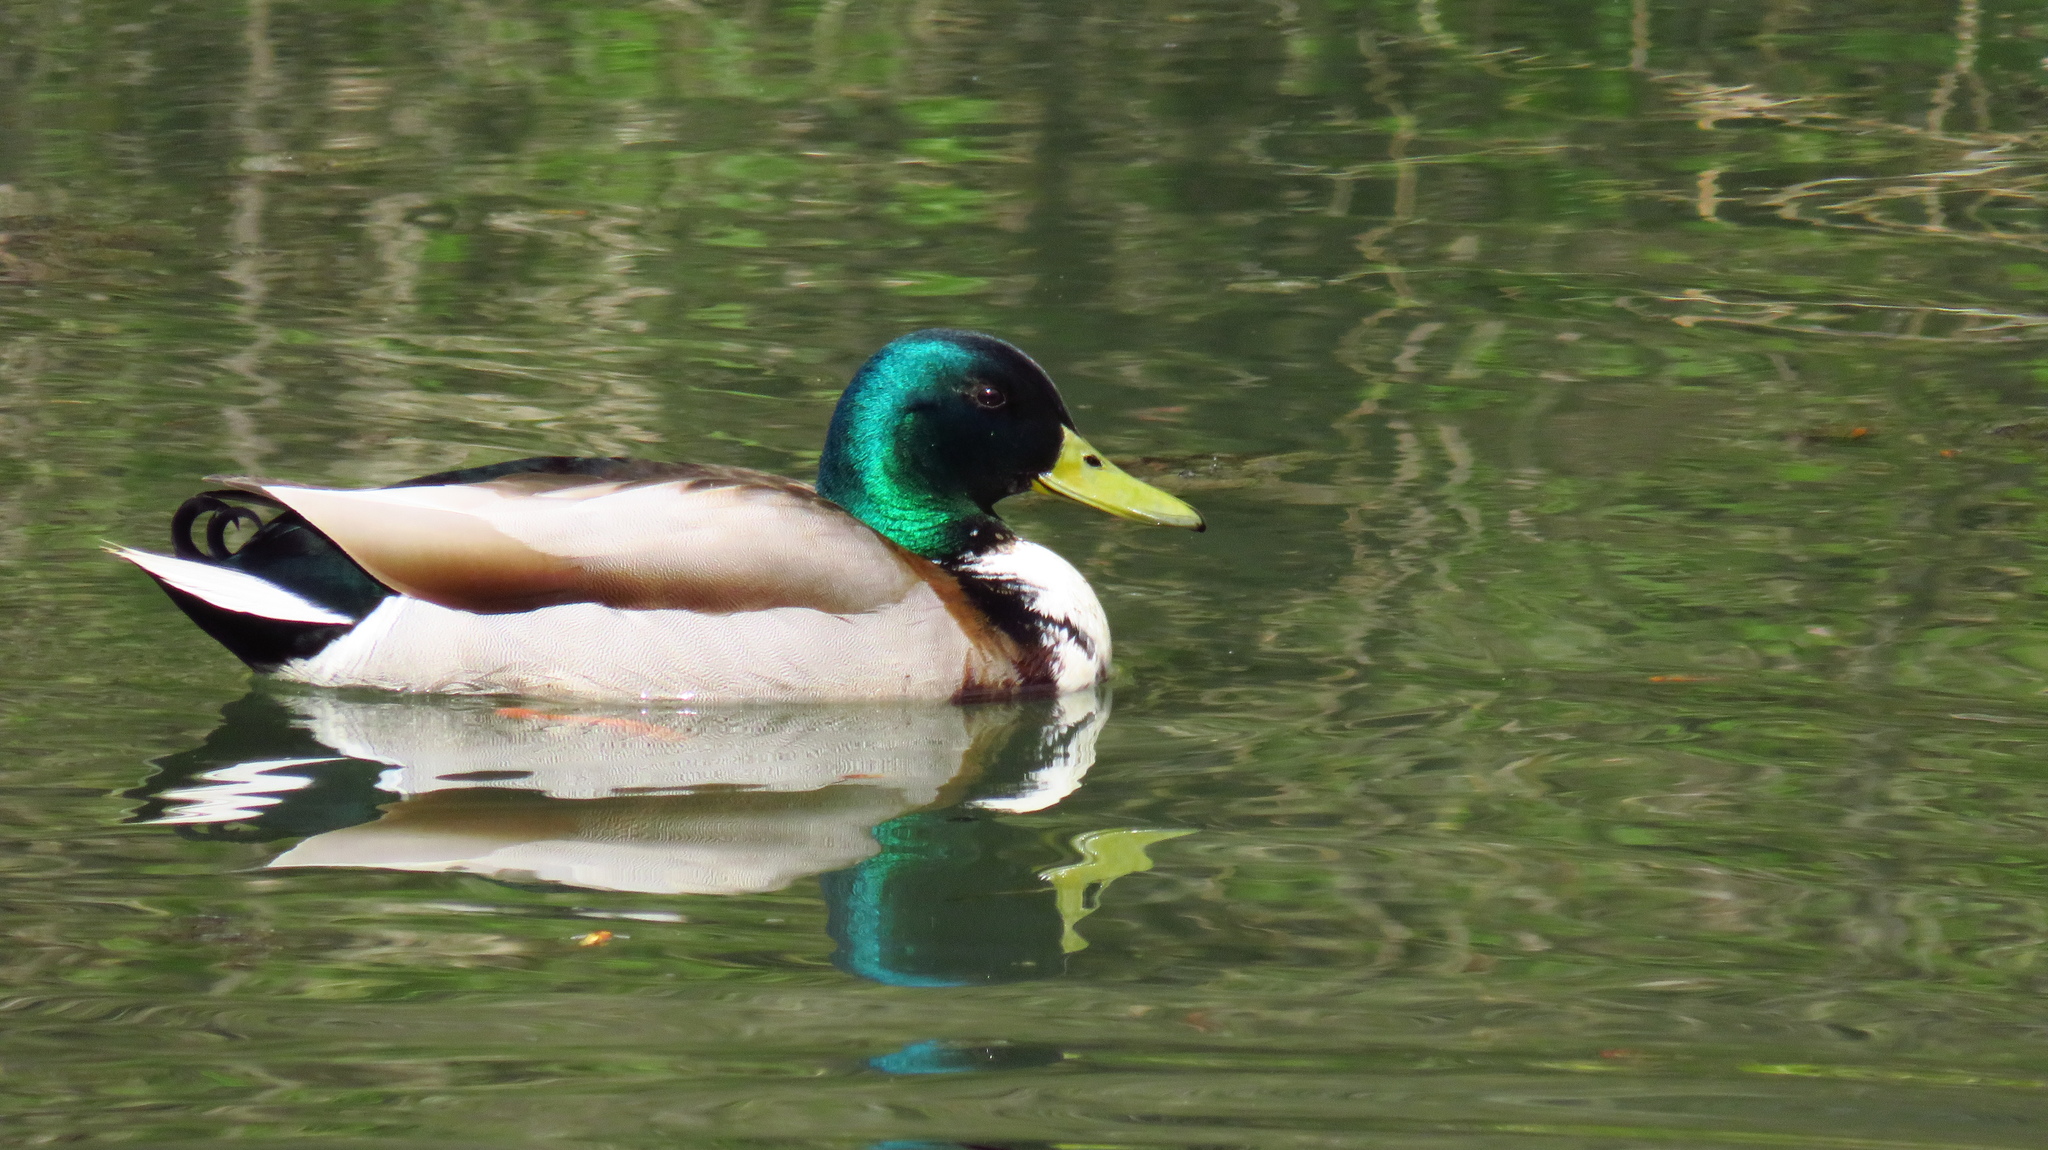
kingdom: Animalia
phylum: Chordata
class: Aves
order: Anseriformes
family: Anatidae
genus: Anas
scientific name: Anas platyrhynchos
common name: Mallard
